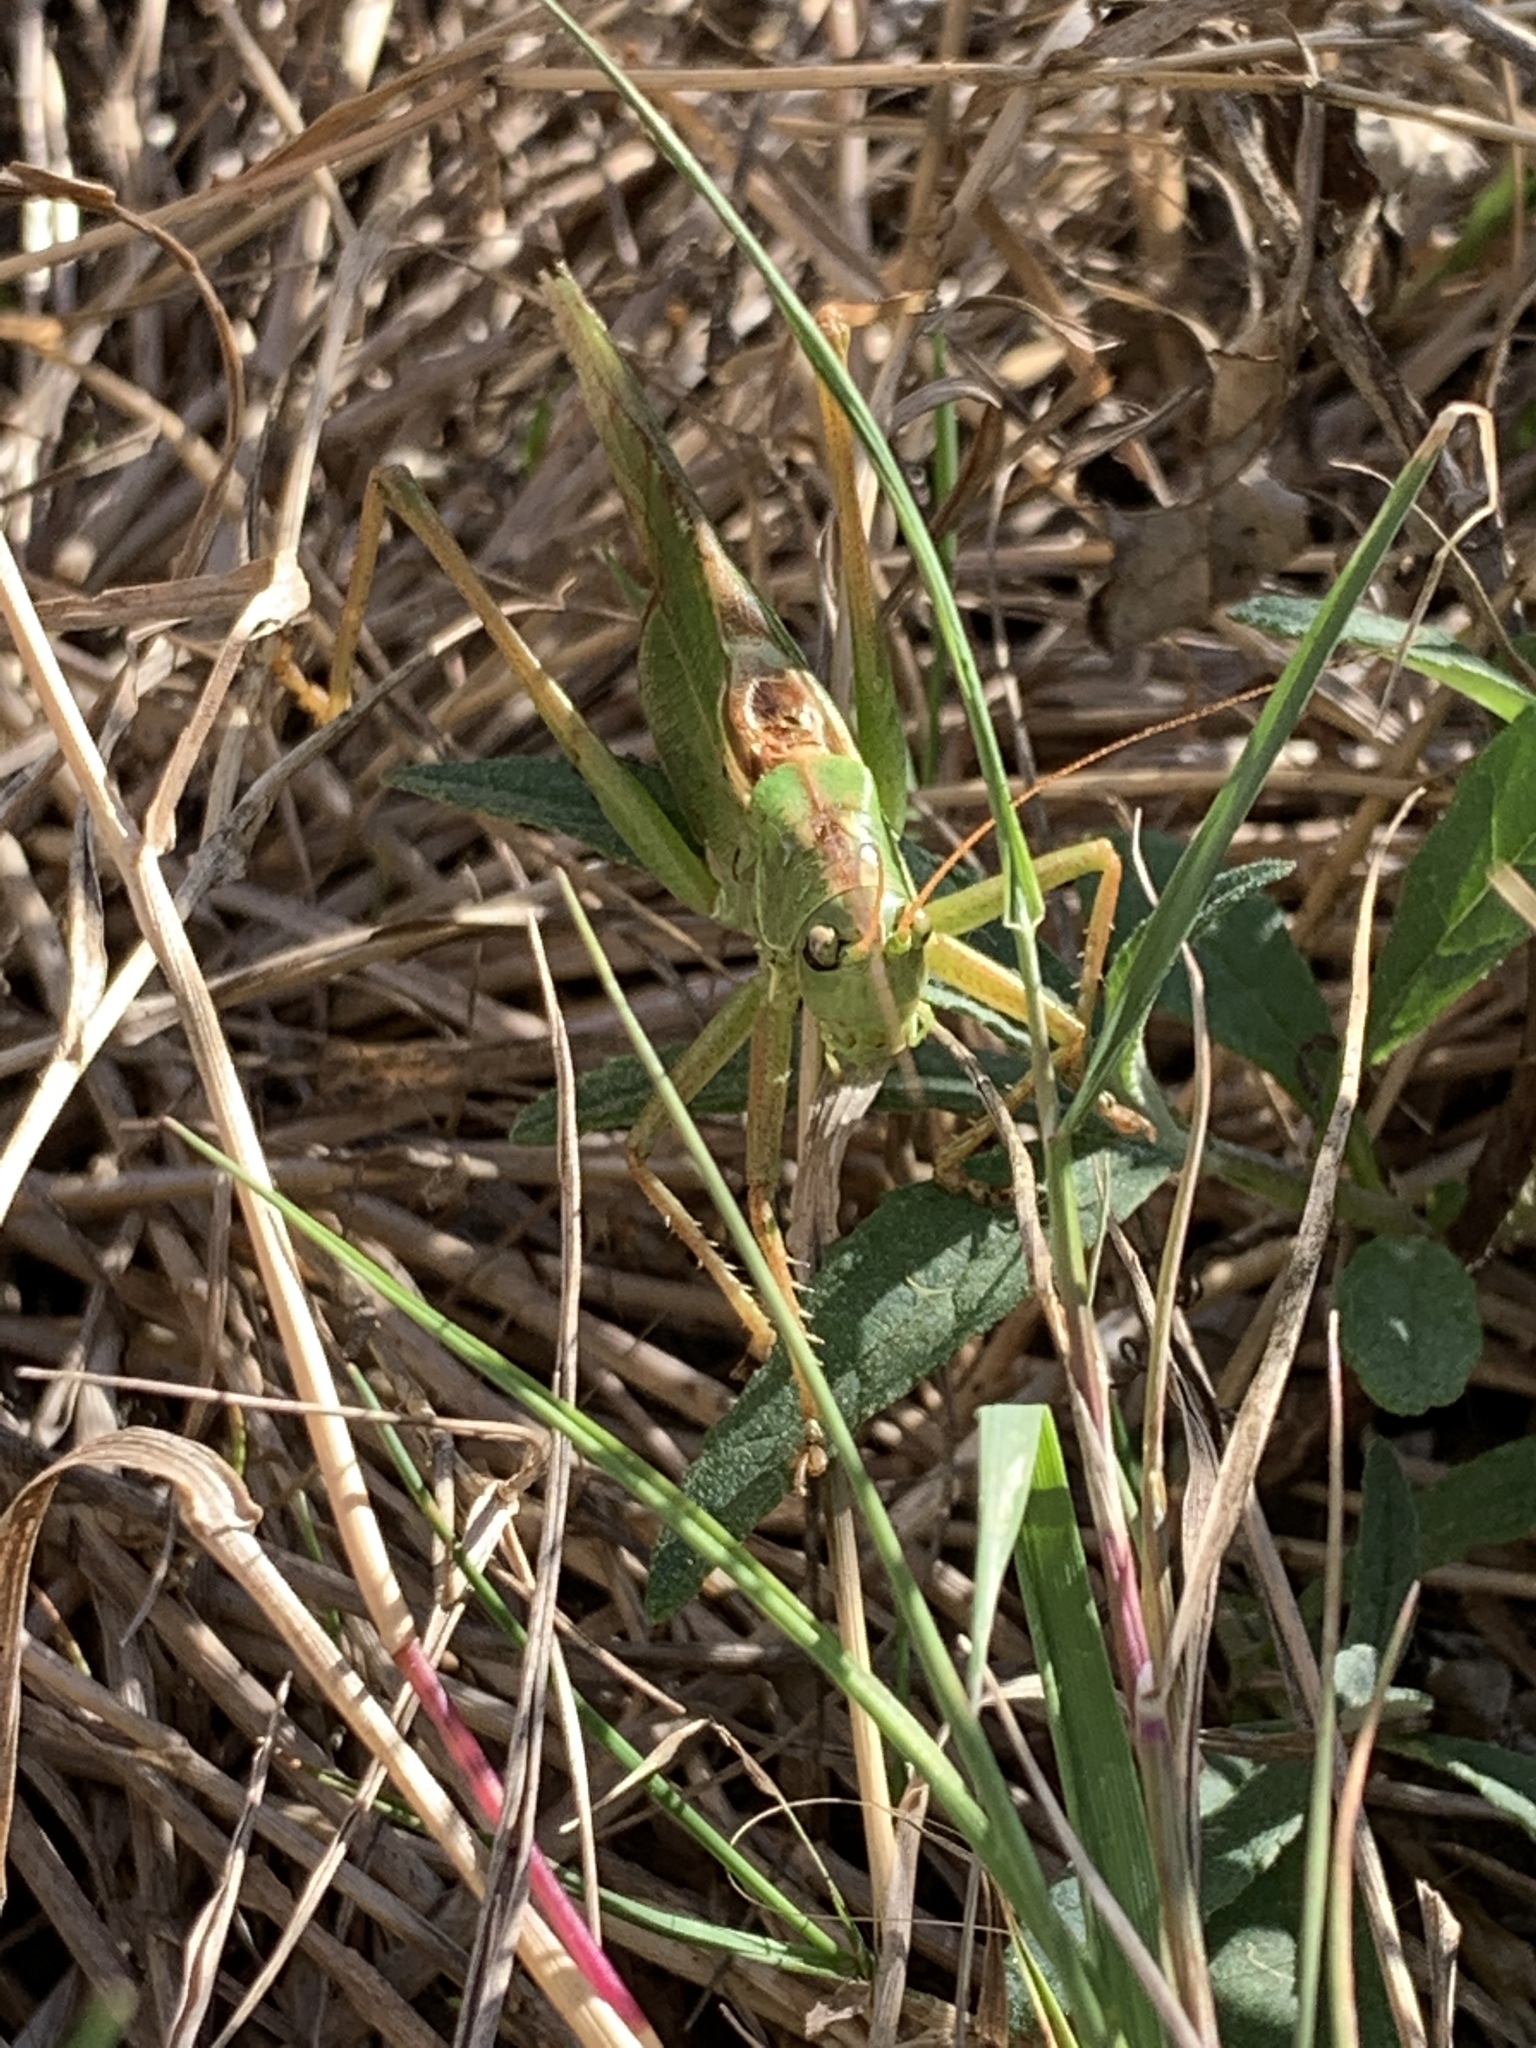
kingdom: Animalia
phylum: Arthropoda
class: Insecta
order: Orthoptera
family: Tettigoniidae
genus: Tettigonia
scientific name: Tettigonia viridissima
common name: Great green bush-cricket
